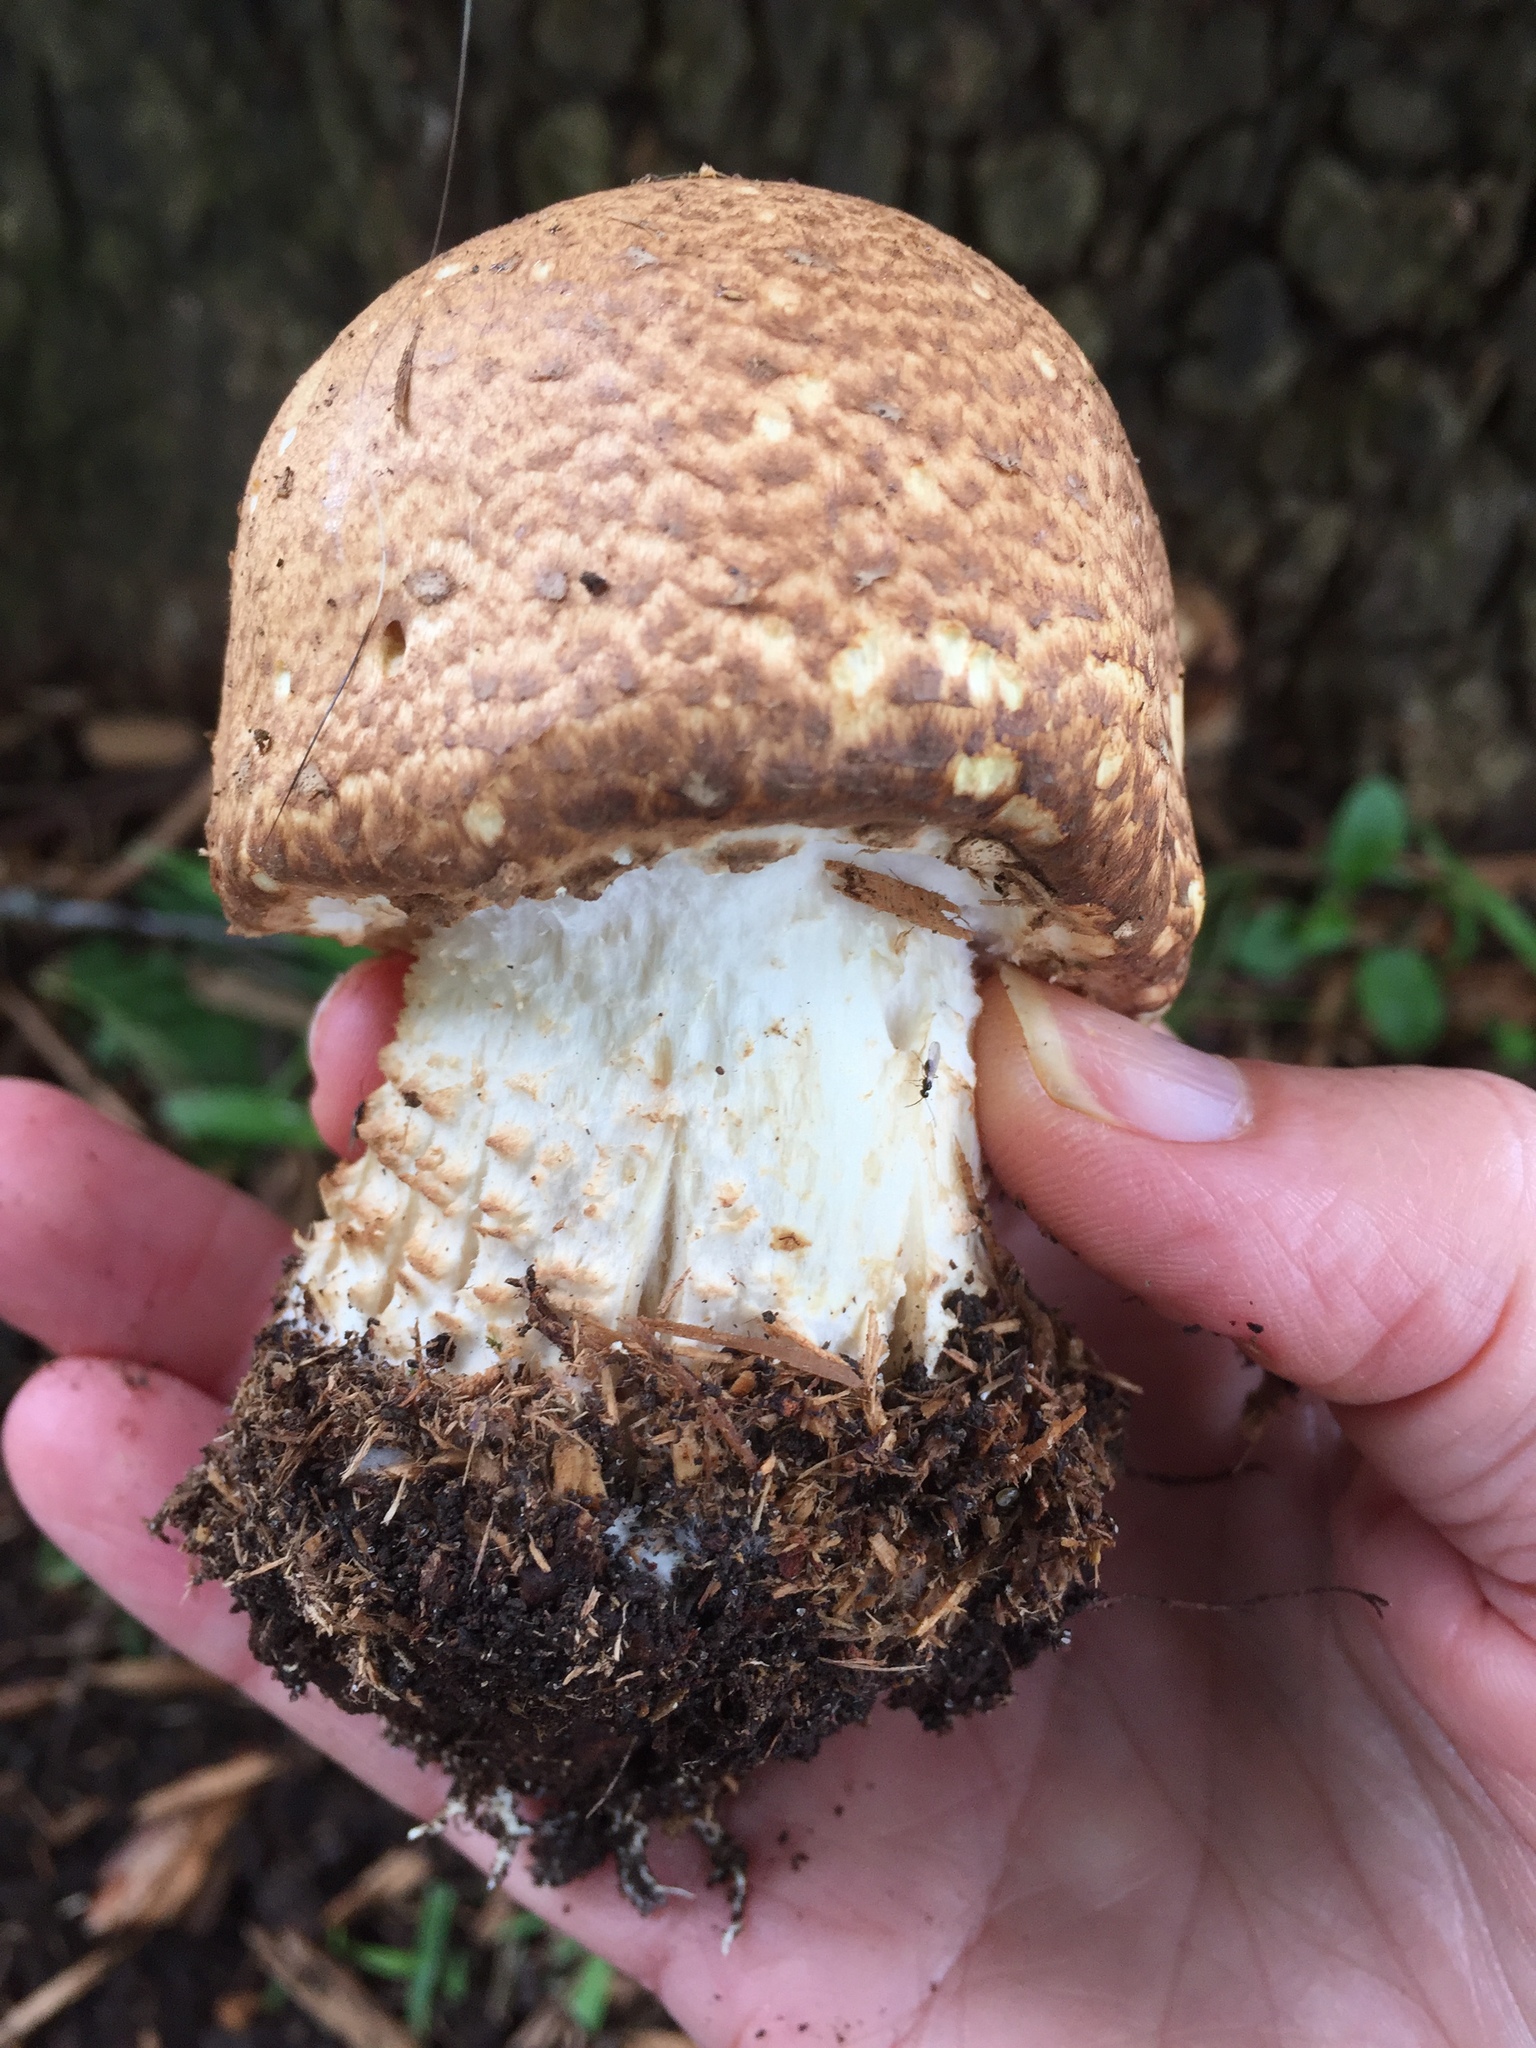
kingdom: Fungi
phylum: Basidiomycota
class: Agaricomycetes
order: Agaricales
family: Agaricaceae
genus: Agaricus
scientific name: Agaricus augustus
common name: Prince
